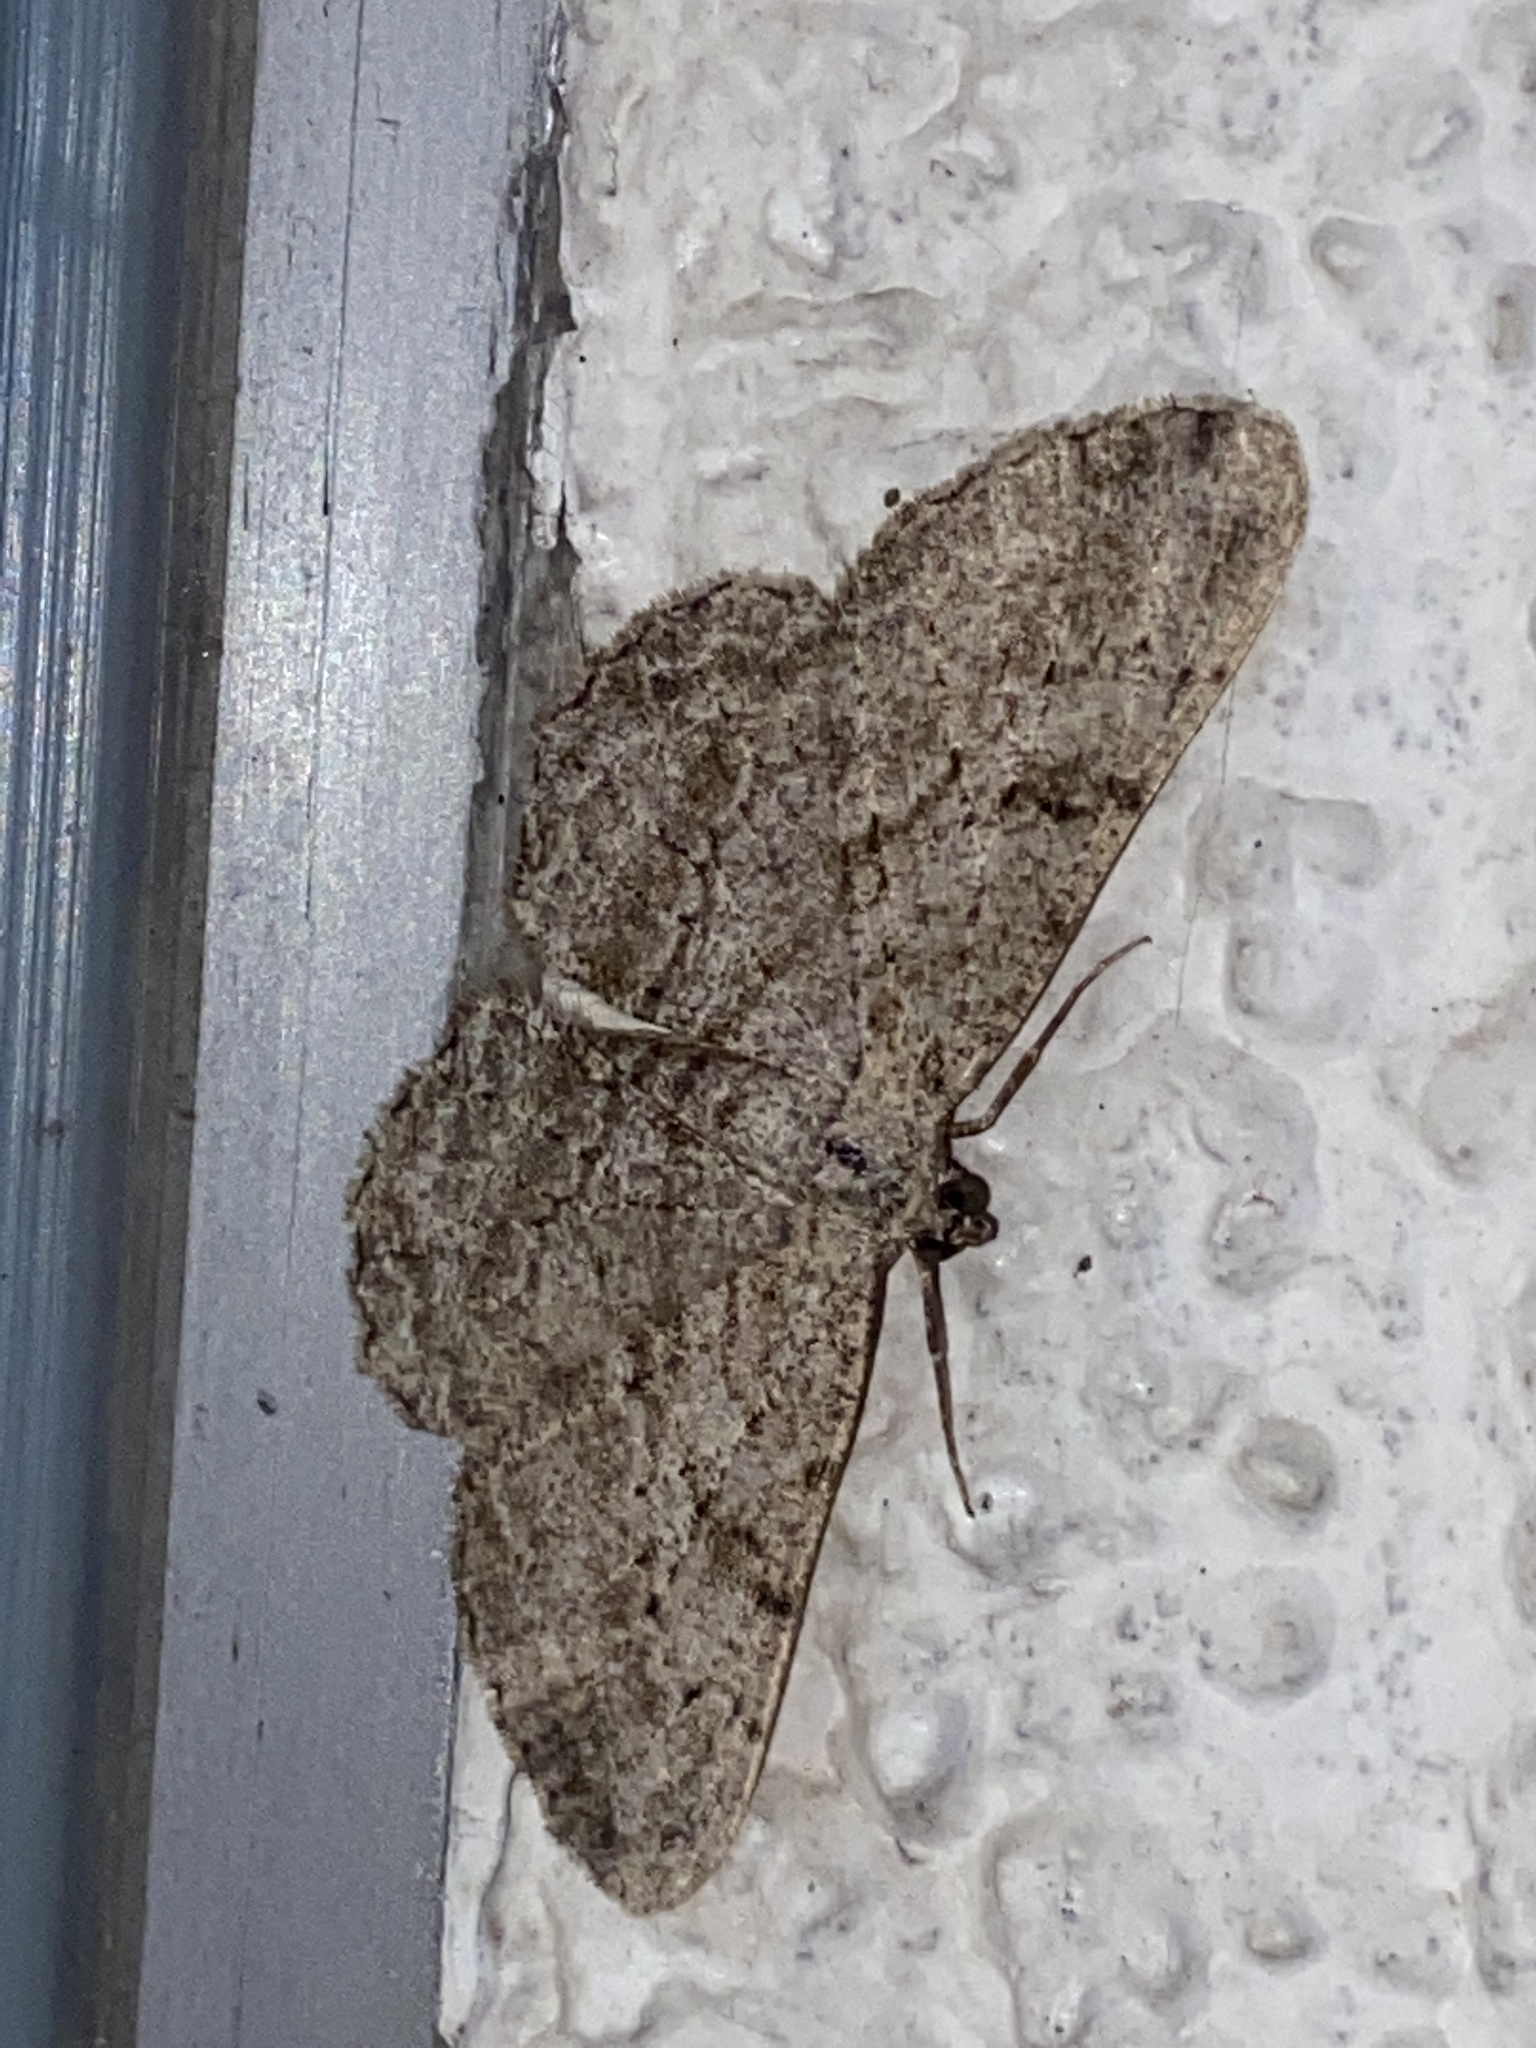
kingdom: Animalia
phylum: Arthropoda
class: Insecta
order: Lepidoptera
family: Geometridae
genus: Peribatodes
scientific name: Peribatodes rhomboidaria
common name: Willow beauty
